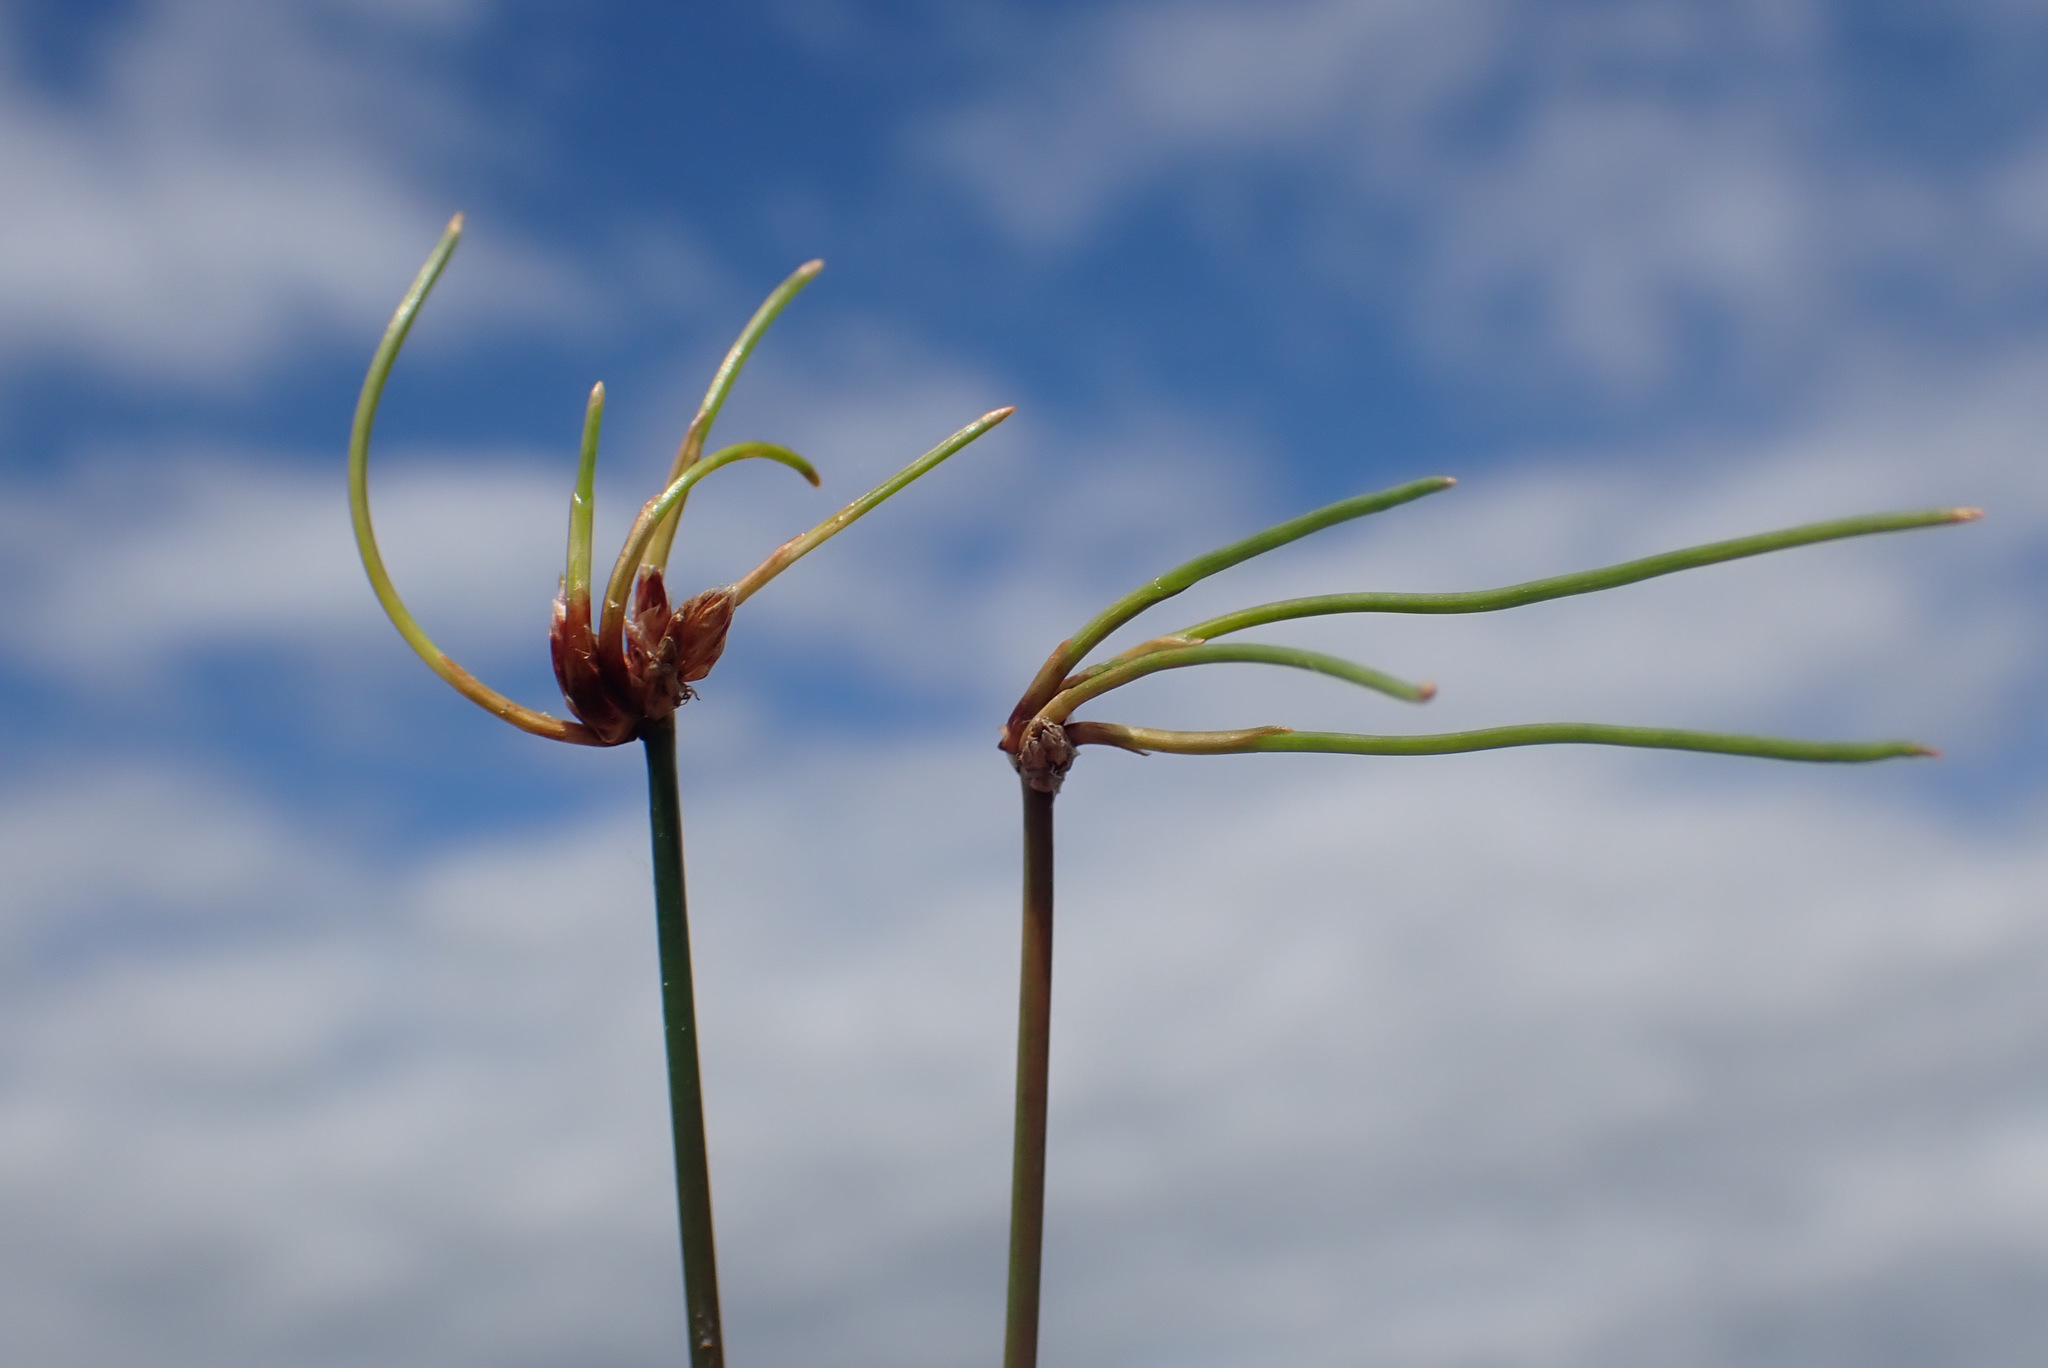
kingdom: Plantae
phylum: Tracheophyta
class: Liliopsida
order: Poales
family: Cyperaceae
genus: Eleocharis
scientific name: Eleocharis multicaulis
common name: Many-stalked spike-rush
